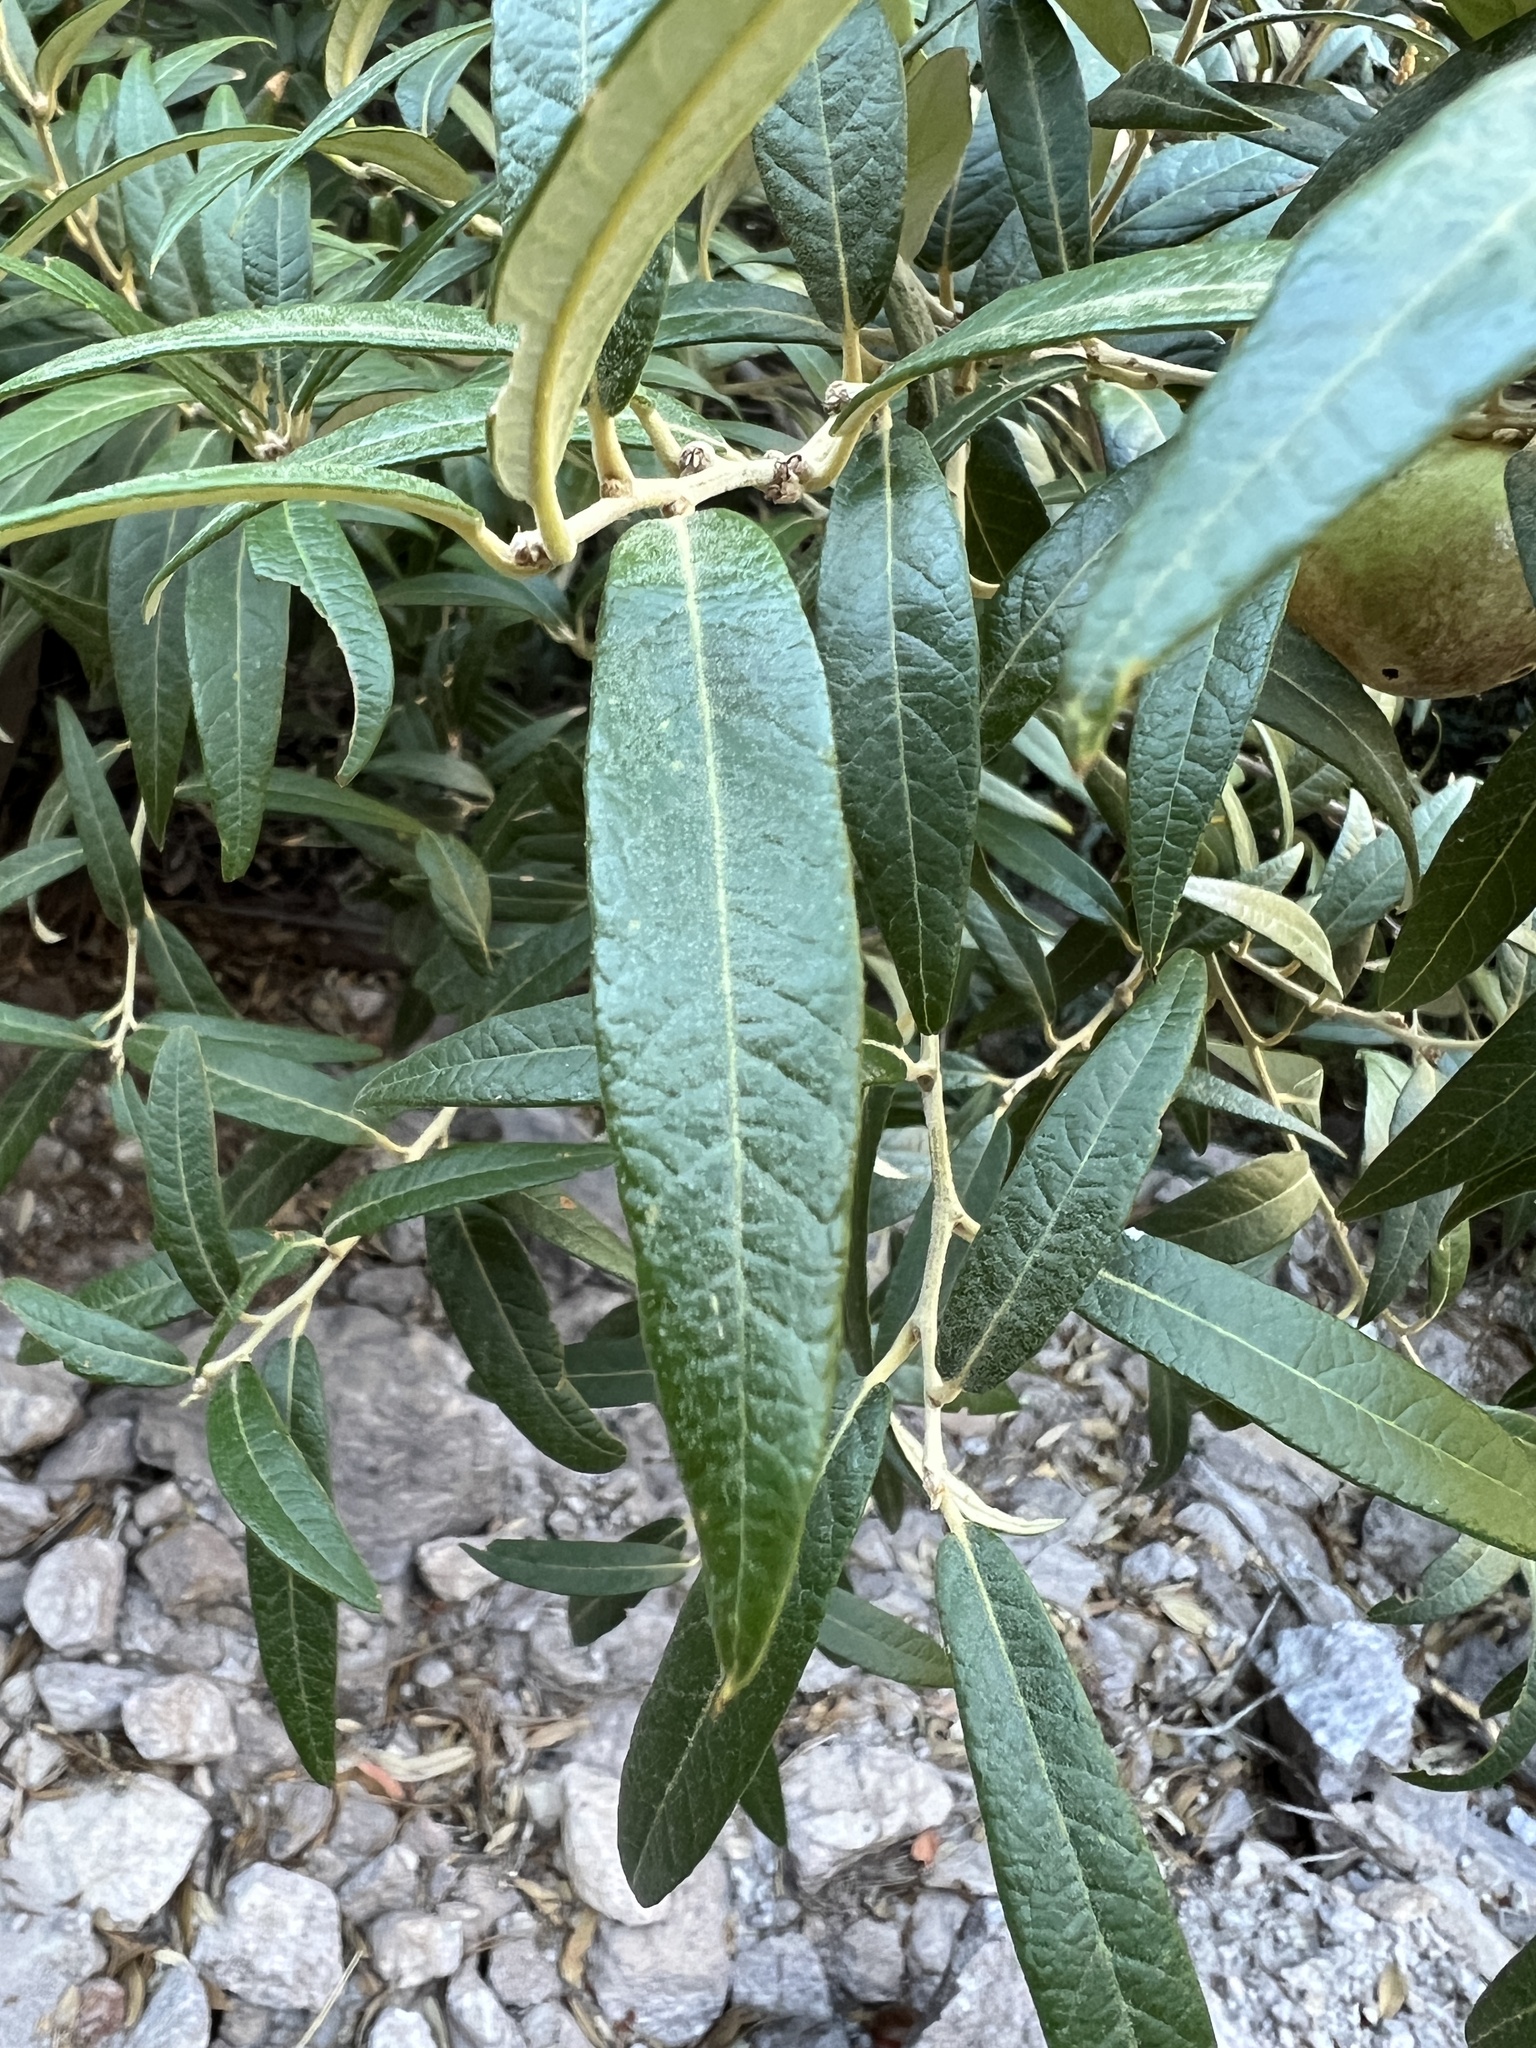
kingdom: Plantae
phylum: Tracheophyta
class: Magnoliopsida
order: Fagales
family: Fagaceae
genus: Quercus
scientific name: Quercus hypoleucoides
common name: Silverleaf oak
